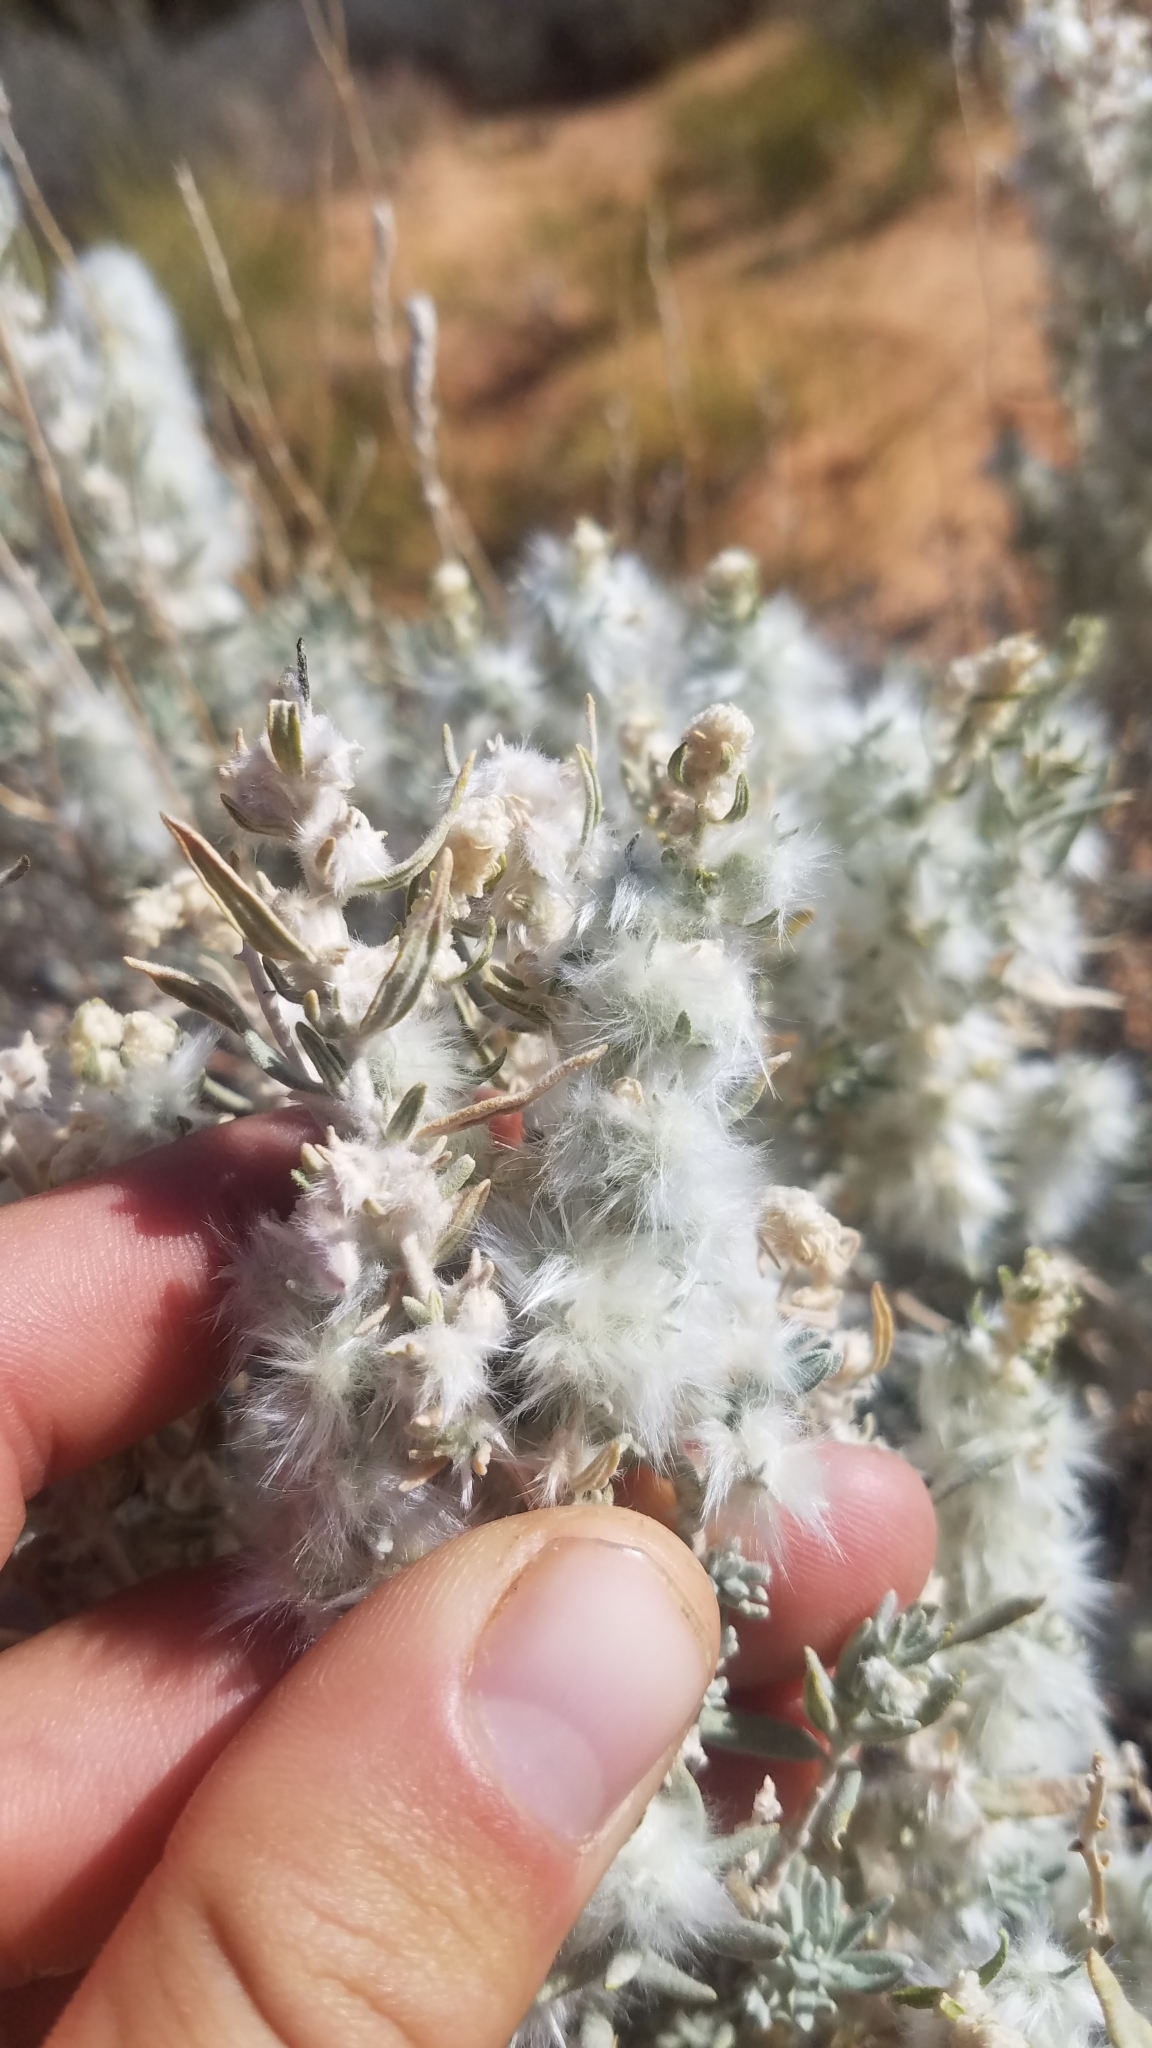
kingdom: Plantae
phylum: Tracheophyta
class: Magnoliopsida
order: Caryophyllales
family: Amaranthaceae
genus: Krascheninnikovia
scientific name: Krascheninnikovia lanata
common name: Winterfat
